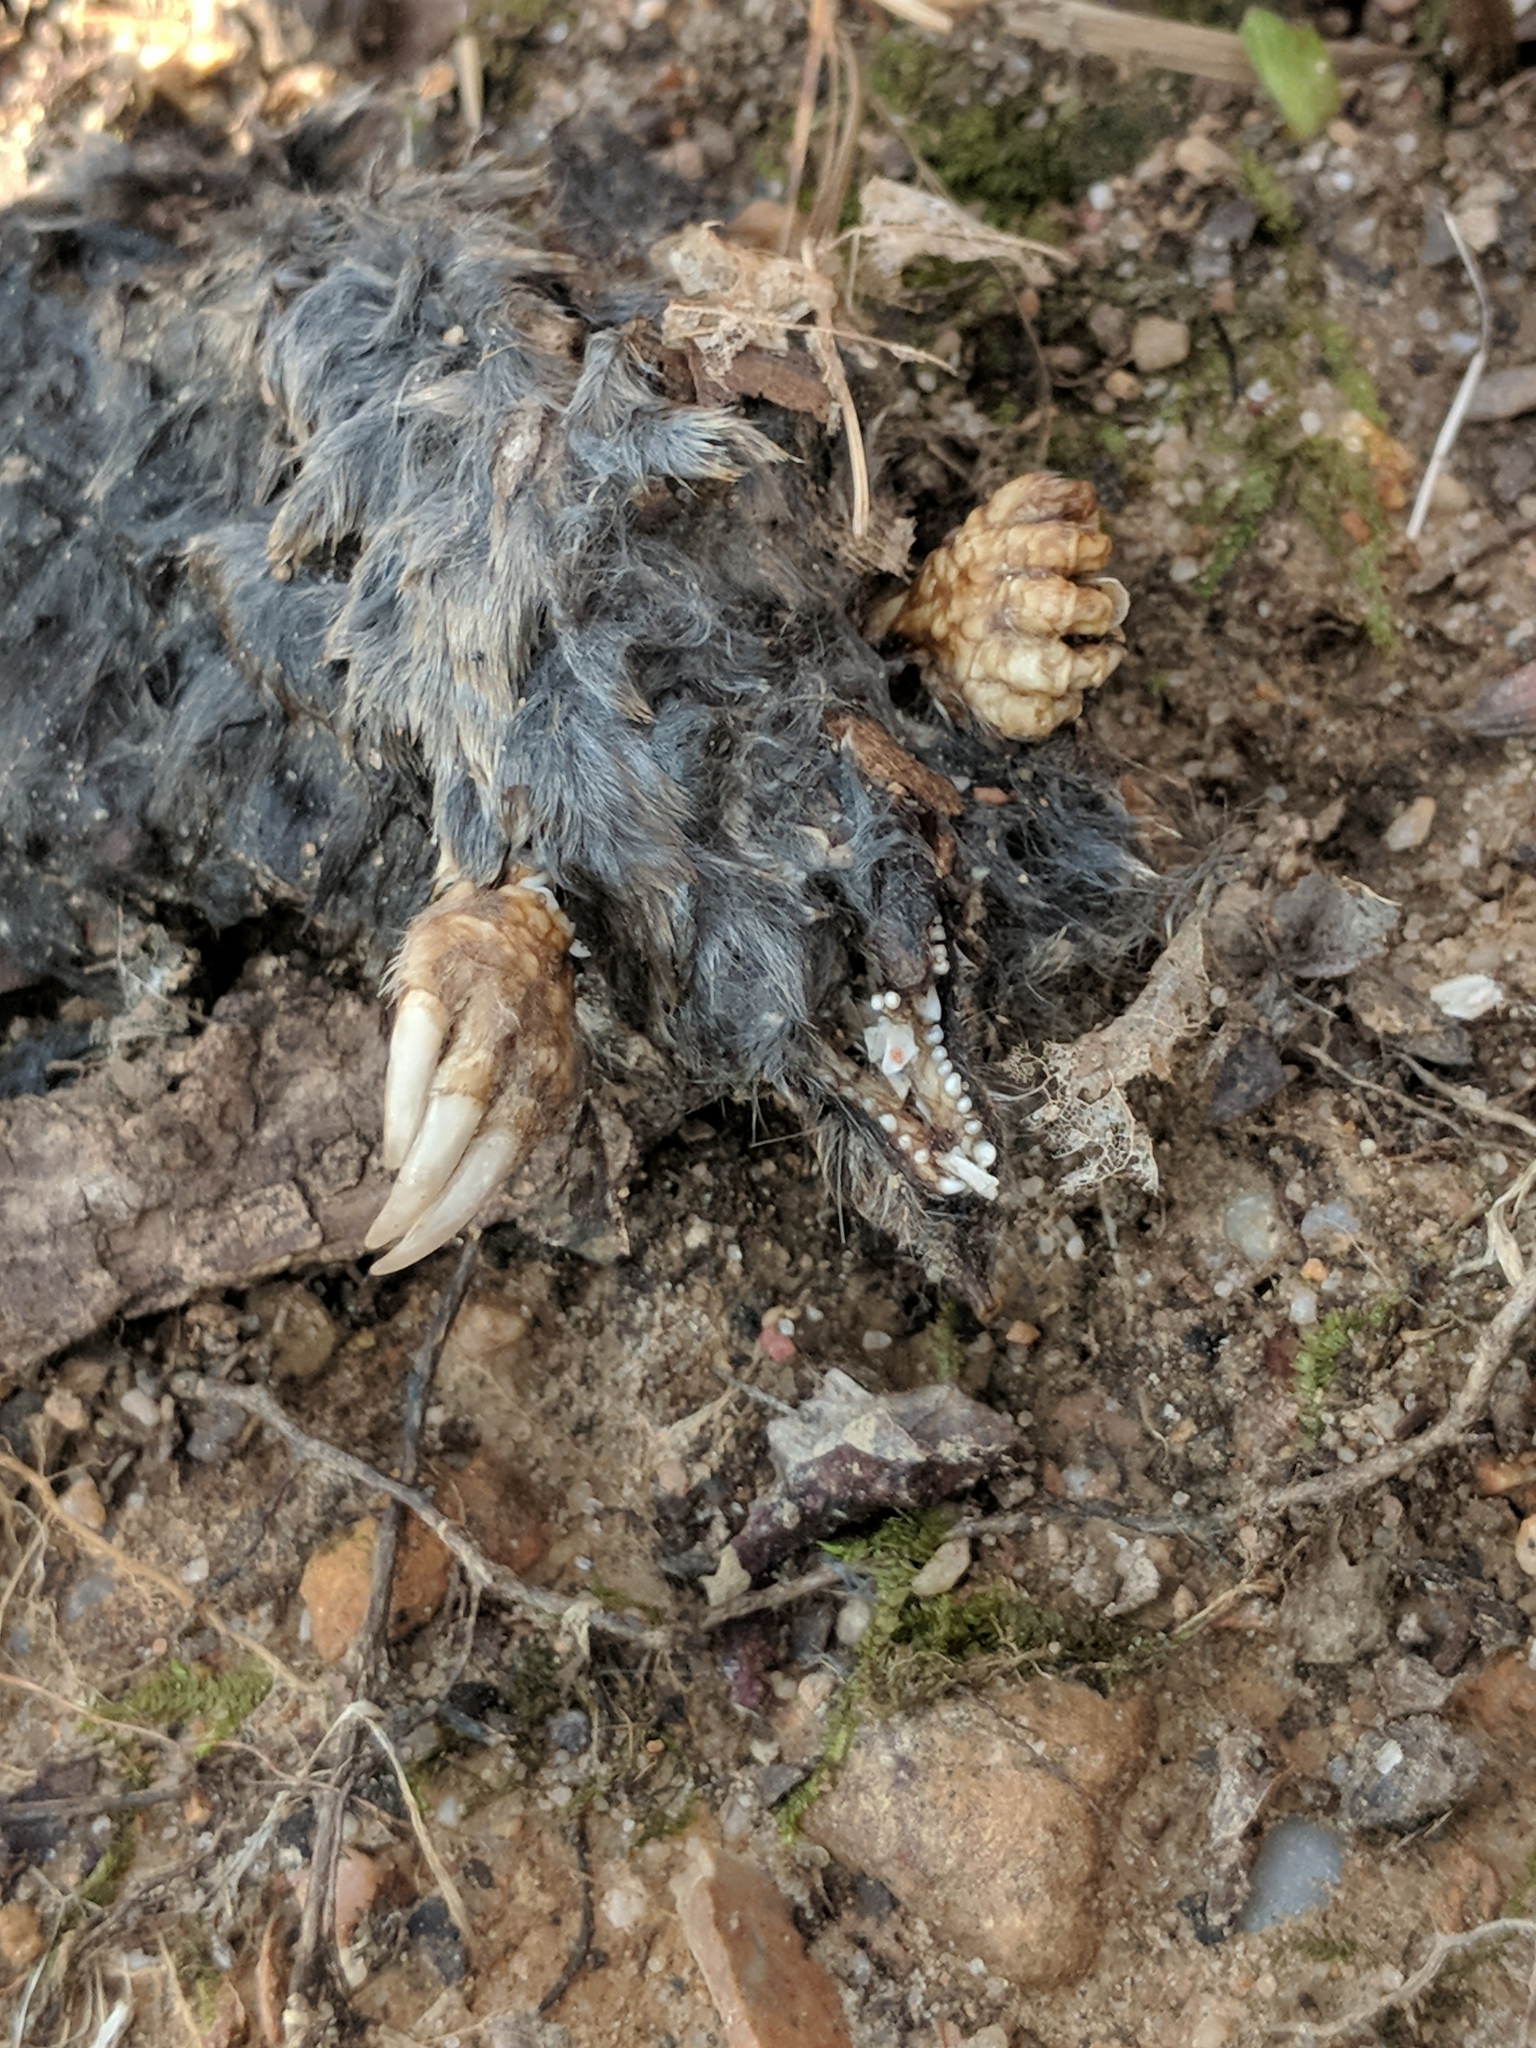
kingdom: Animalia
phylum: Chordata
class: Mammalia
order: Soricomorpha
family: Talpidae
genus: Scalopus
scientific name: Scalopus aquaticus
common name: Eastern mole
